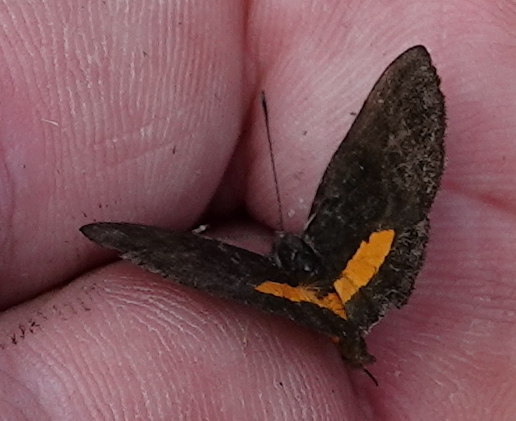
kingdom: Animalia
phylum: Arthropoda
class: Insecta
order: Lepidoptera
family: Riodinidae
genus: Pirascca
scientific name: Pirascca tyriotes
